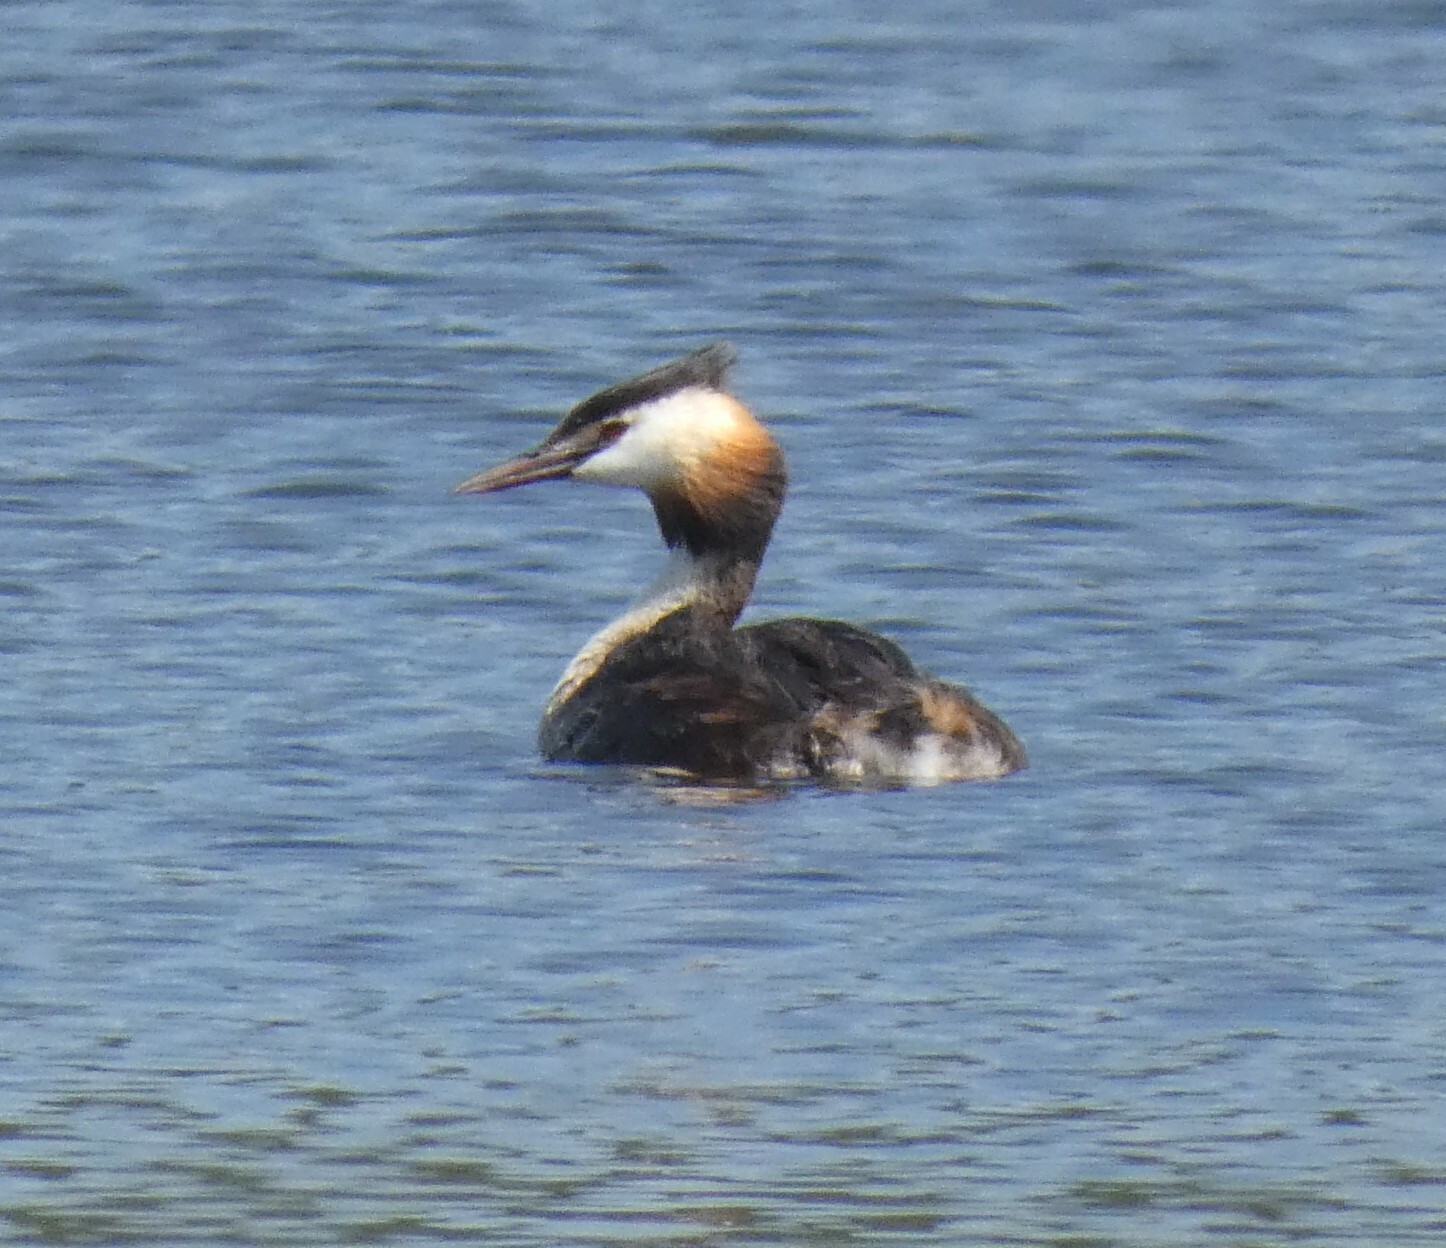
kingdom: Animalia
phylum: Chordata
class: Aves
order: Podicipediformes
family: Podicipedidae
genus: Podiceps
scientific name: Podiceps cristatus
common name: Great crested grebe
